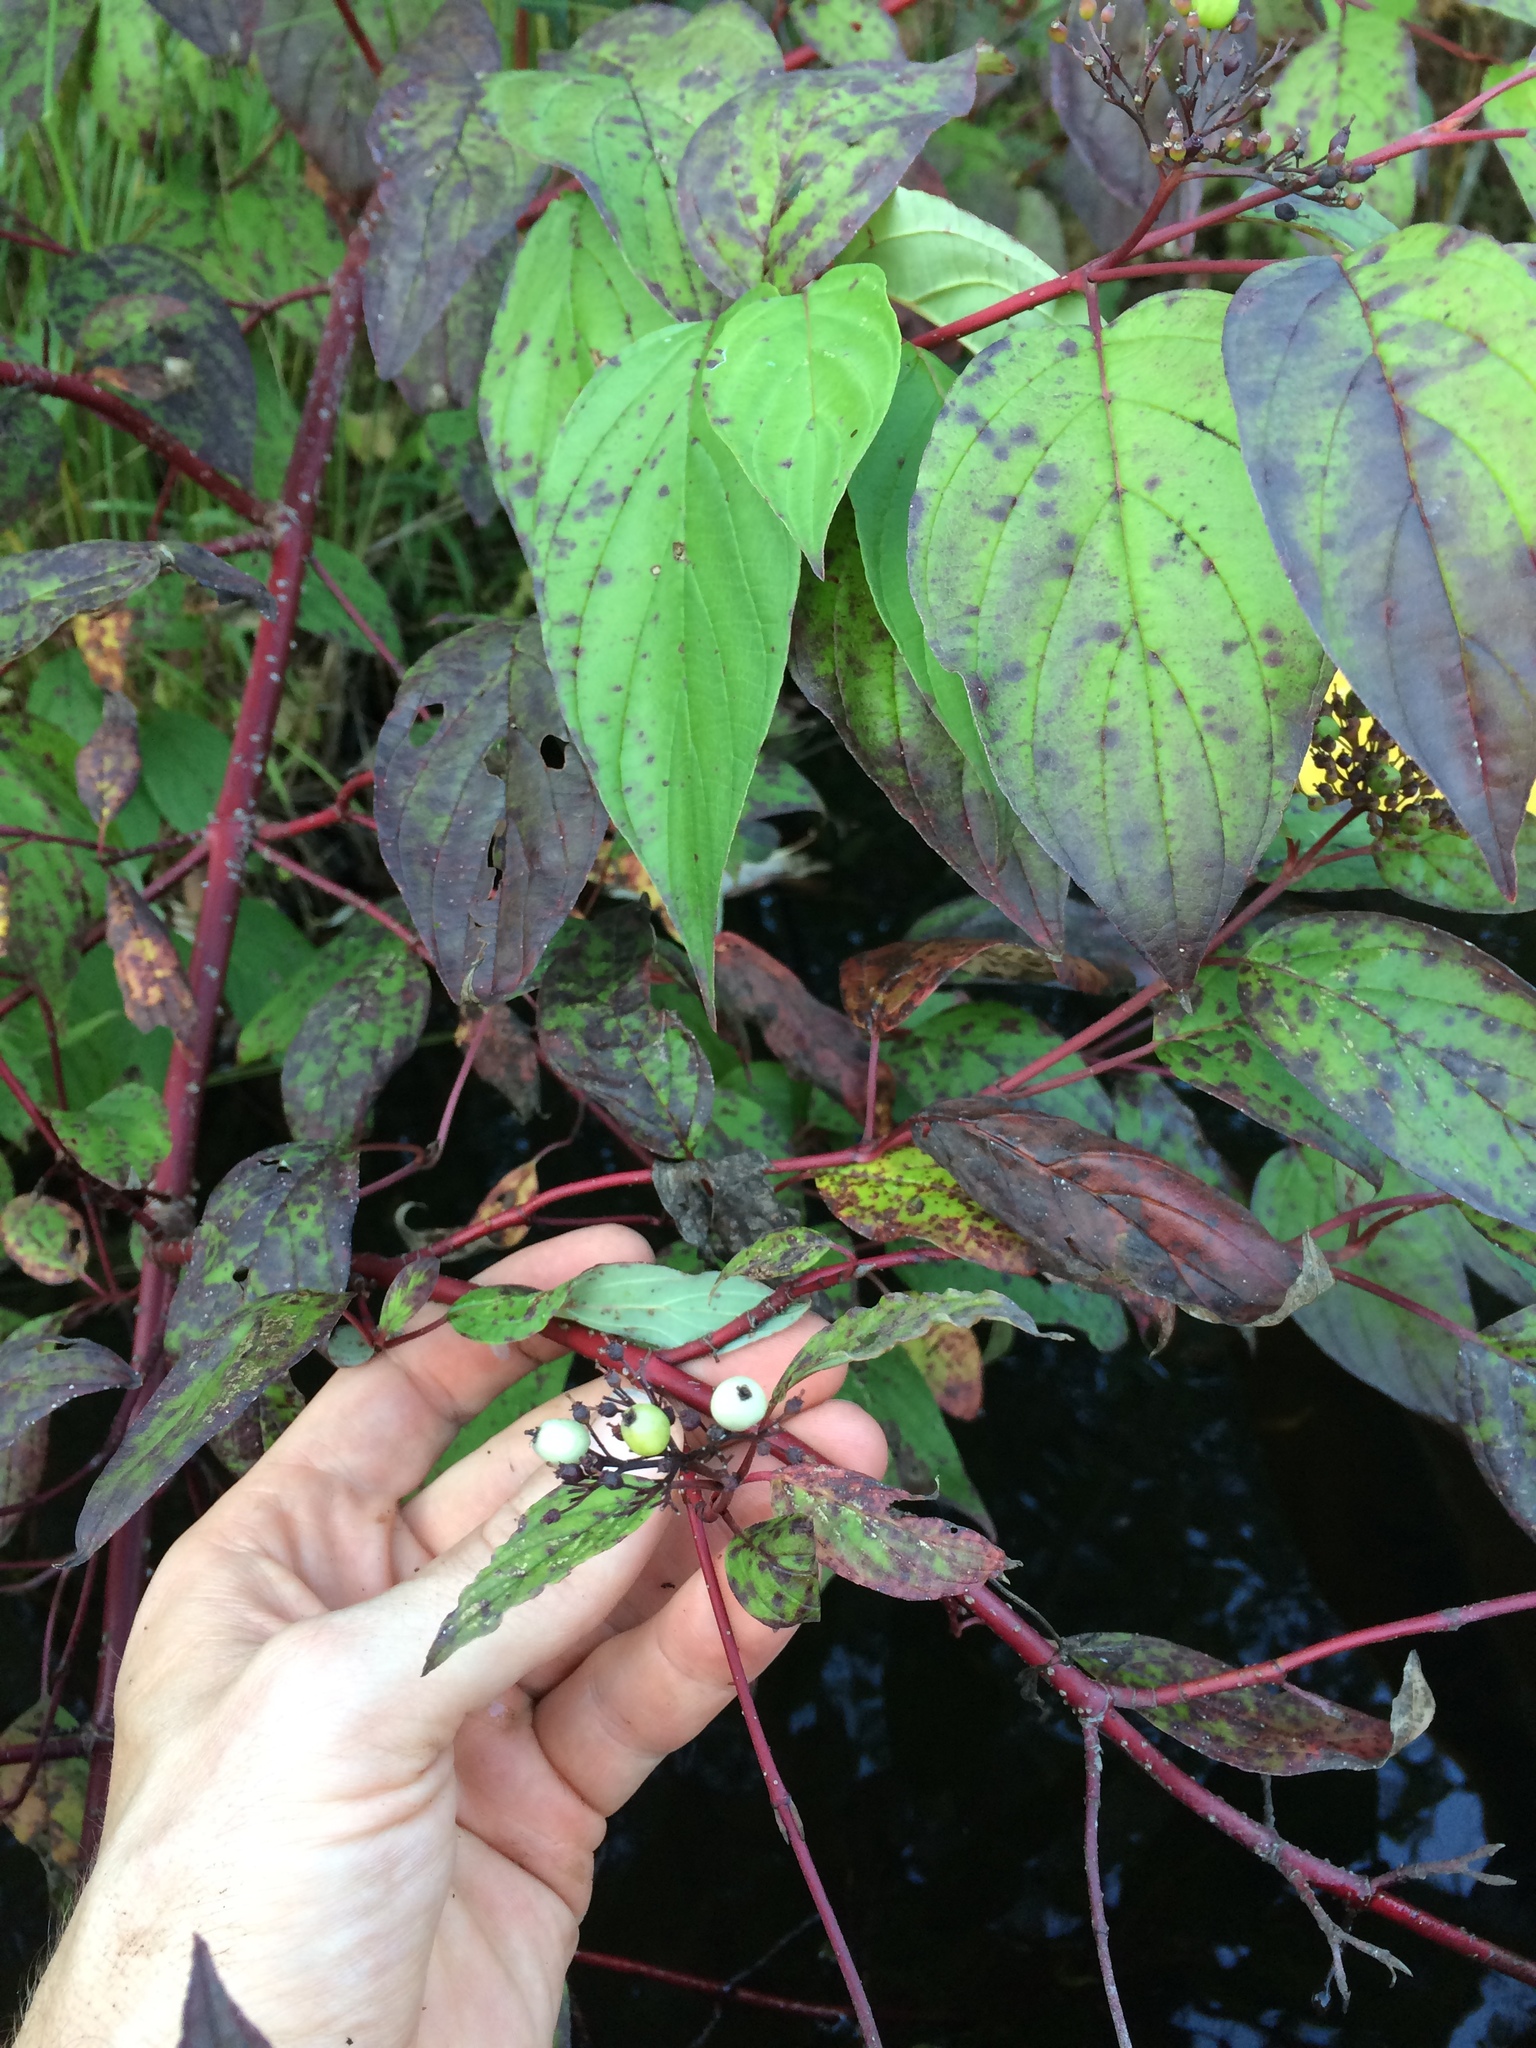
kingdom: Plantae
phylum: Tracheophyta
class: Magnoliopsida
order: Cornales
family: Cornaceae
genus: Cornus
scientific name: Cornus sericea
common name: Red-osier dogwood
